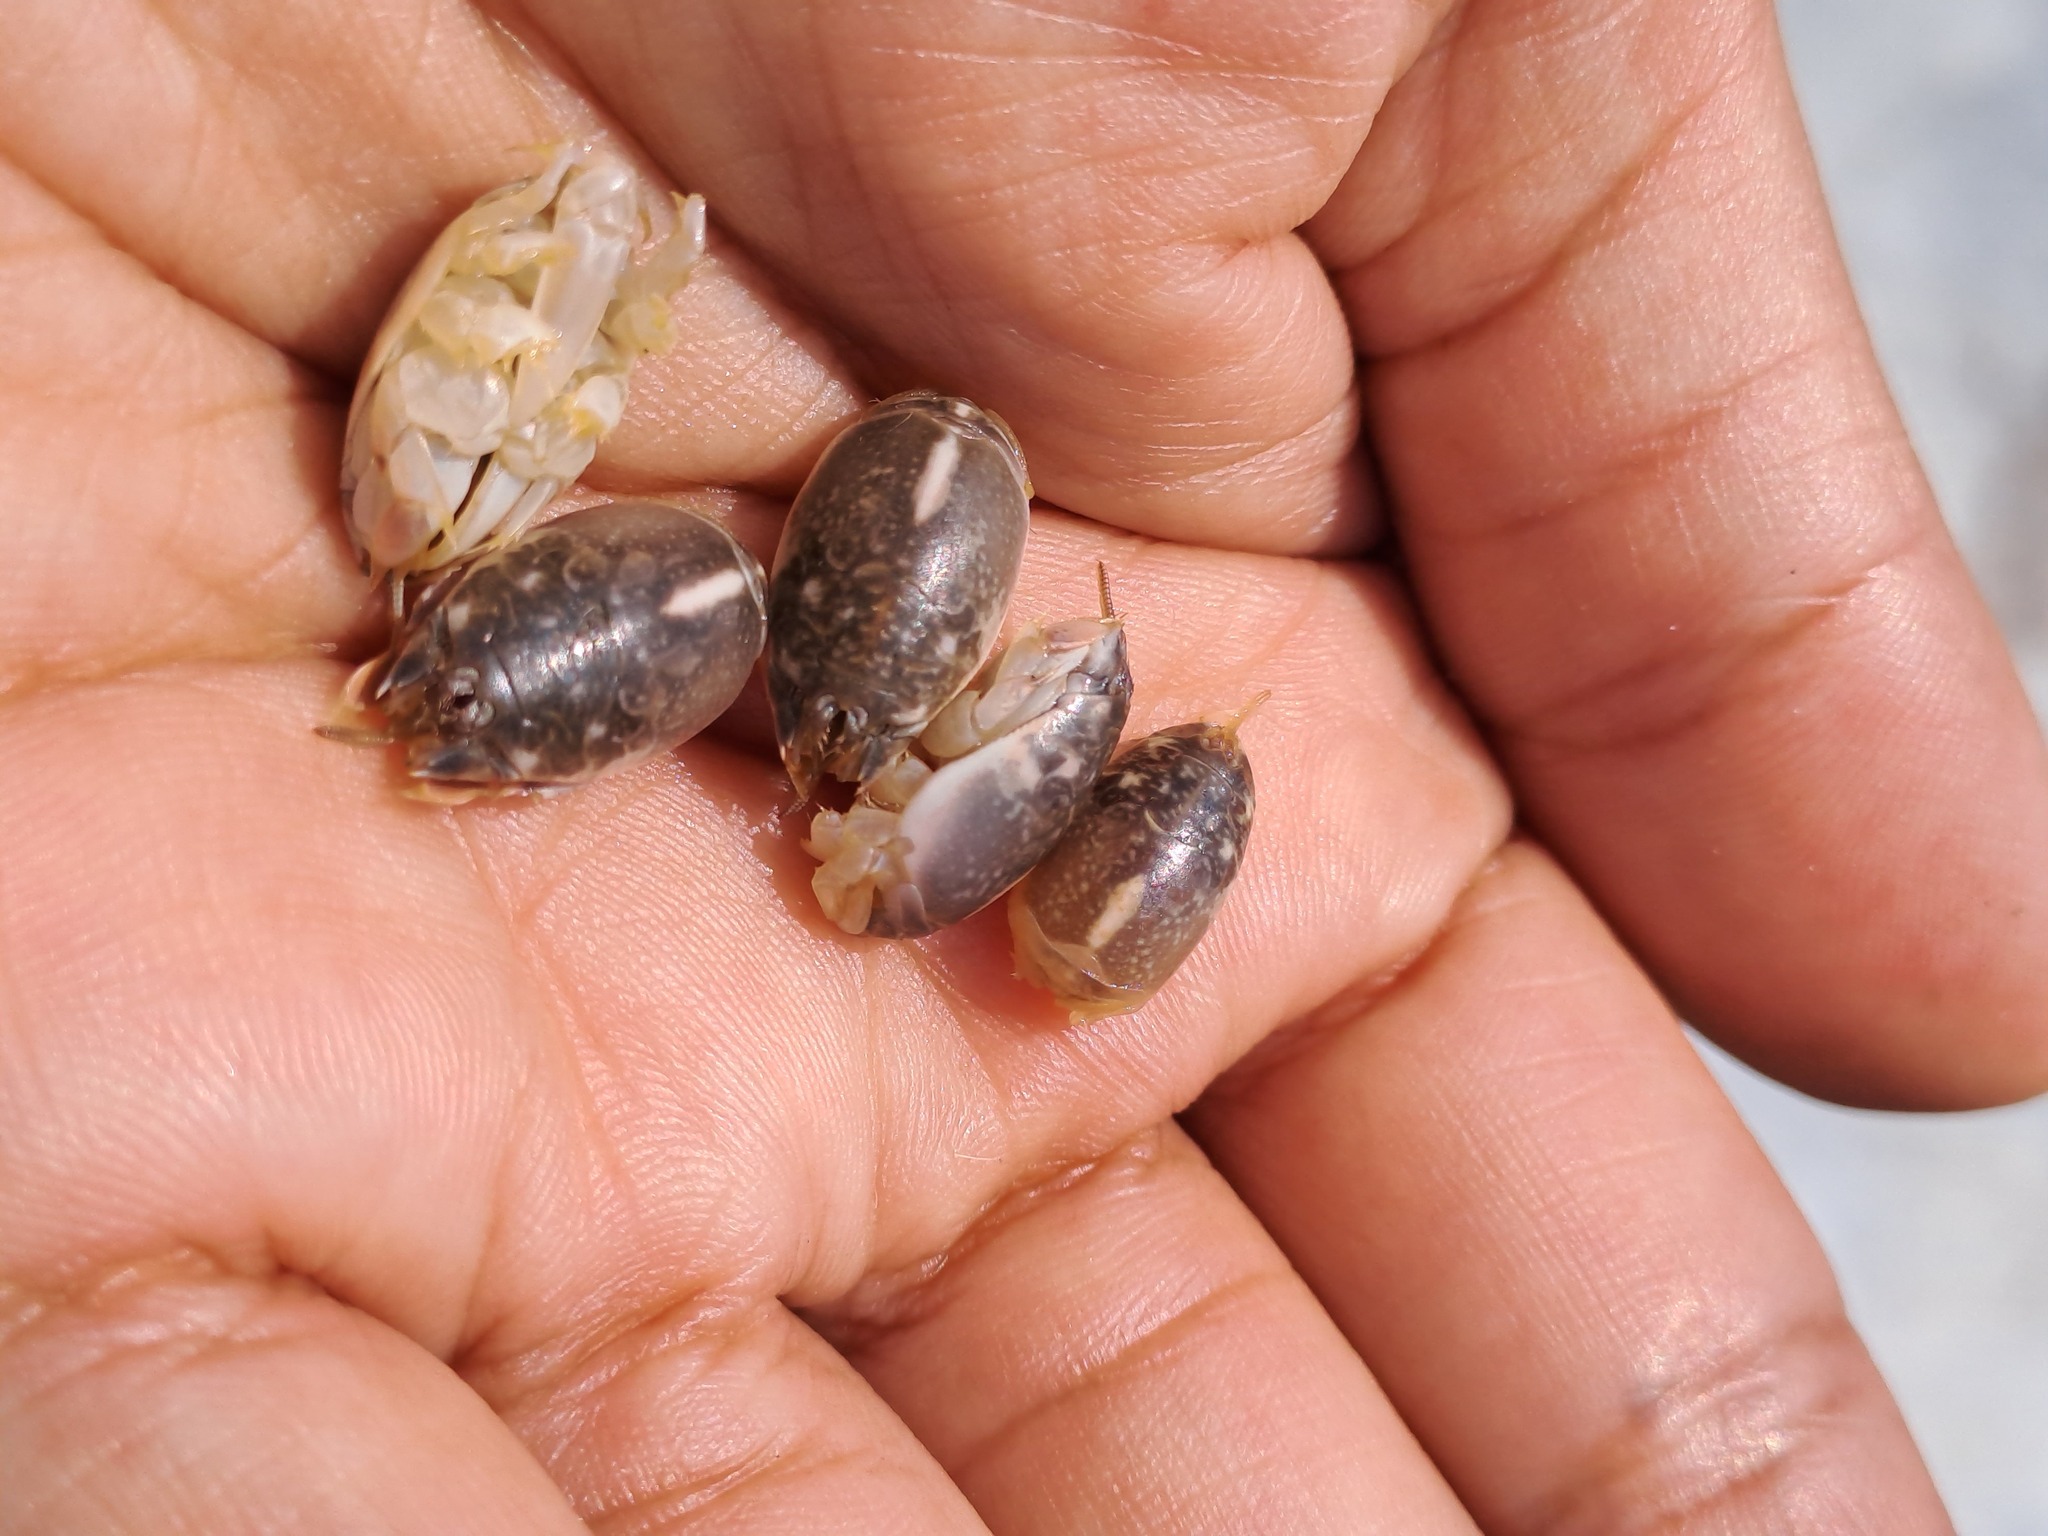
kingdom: Animalia
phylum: Arthropoda
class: Malacostraca
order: Decapoda
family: Hippidae
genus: Emerita
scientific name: Emerita analoga
